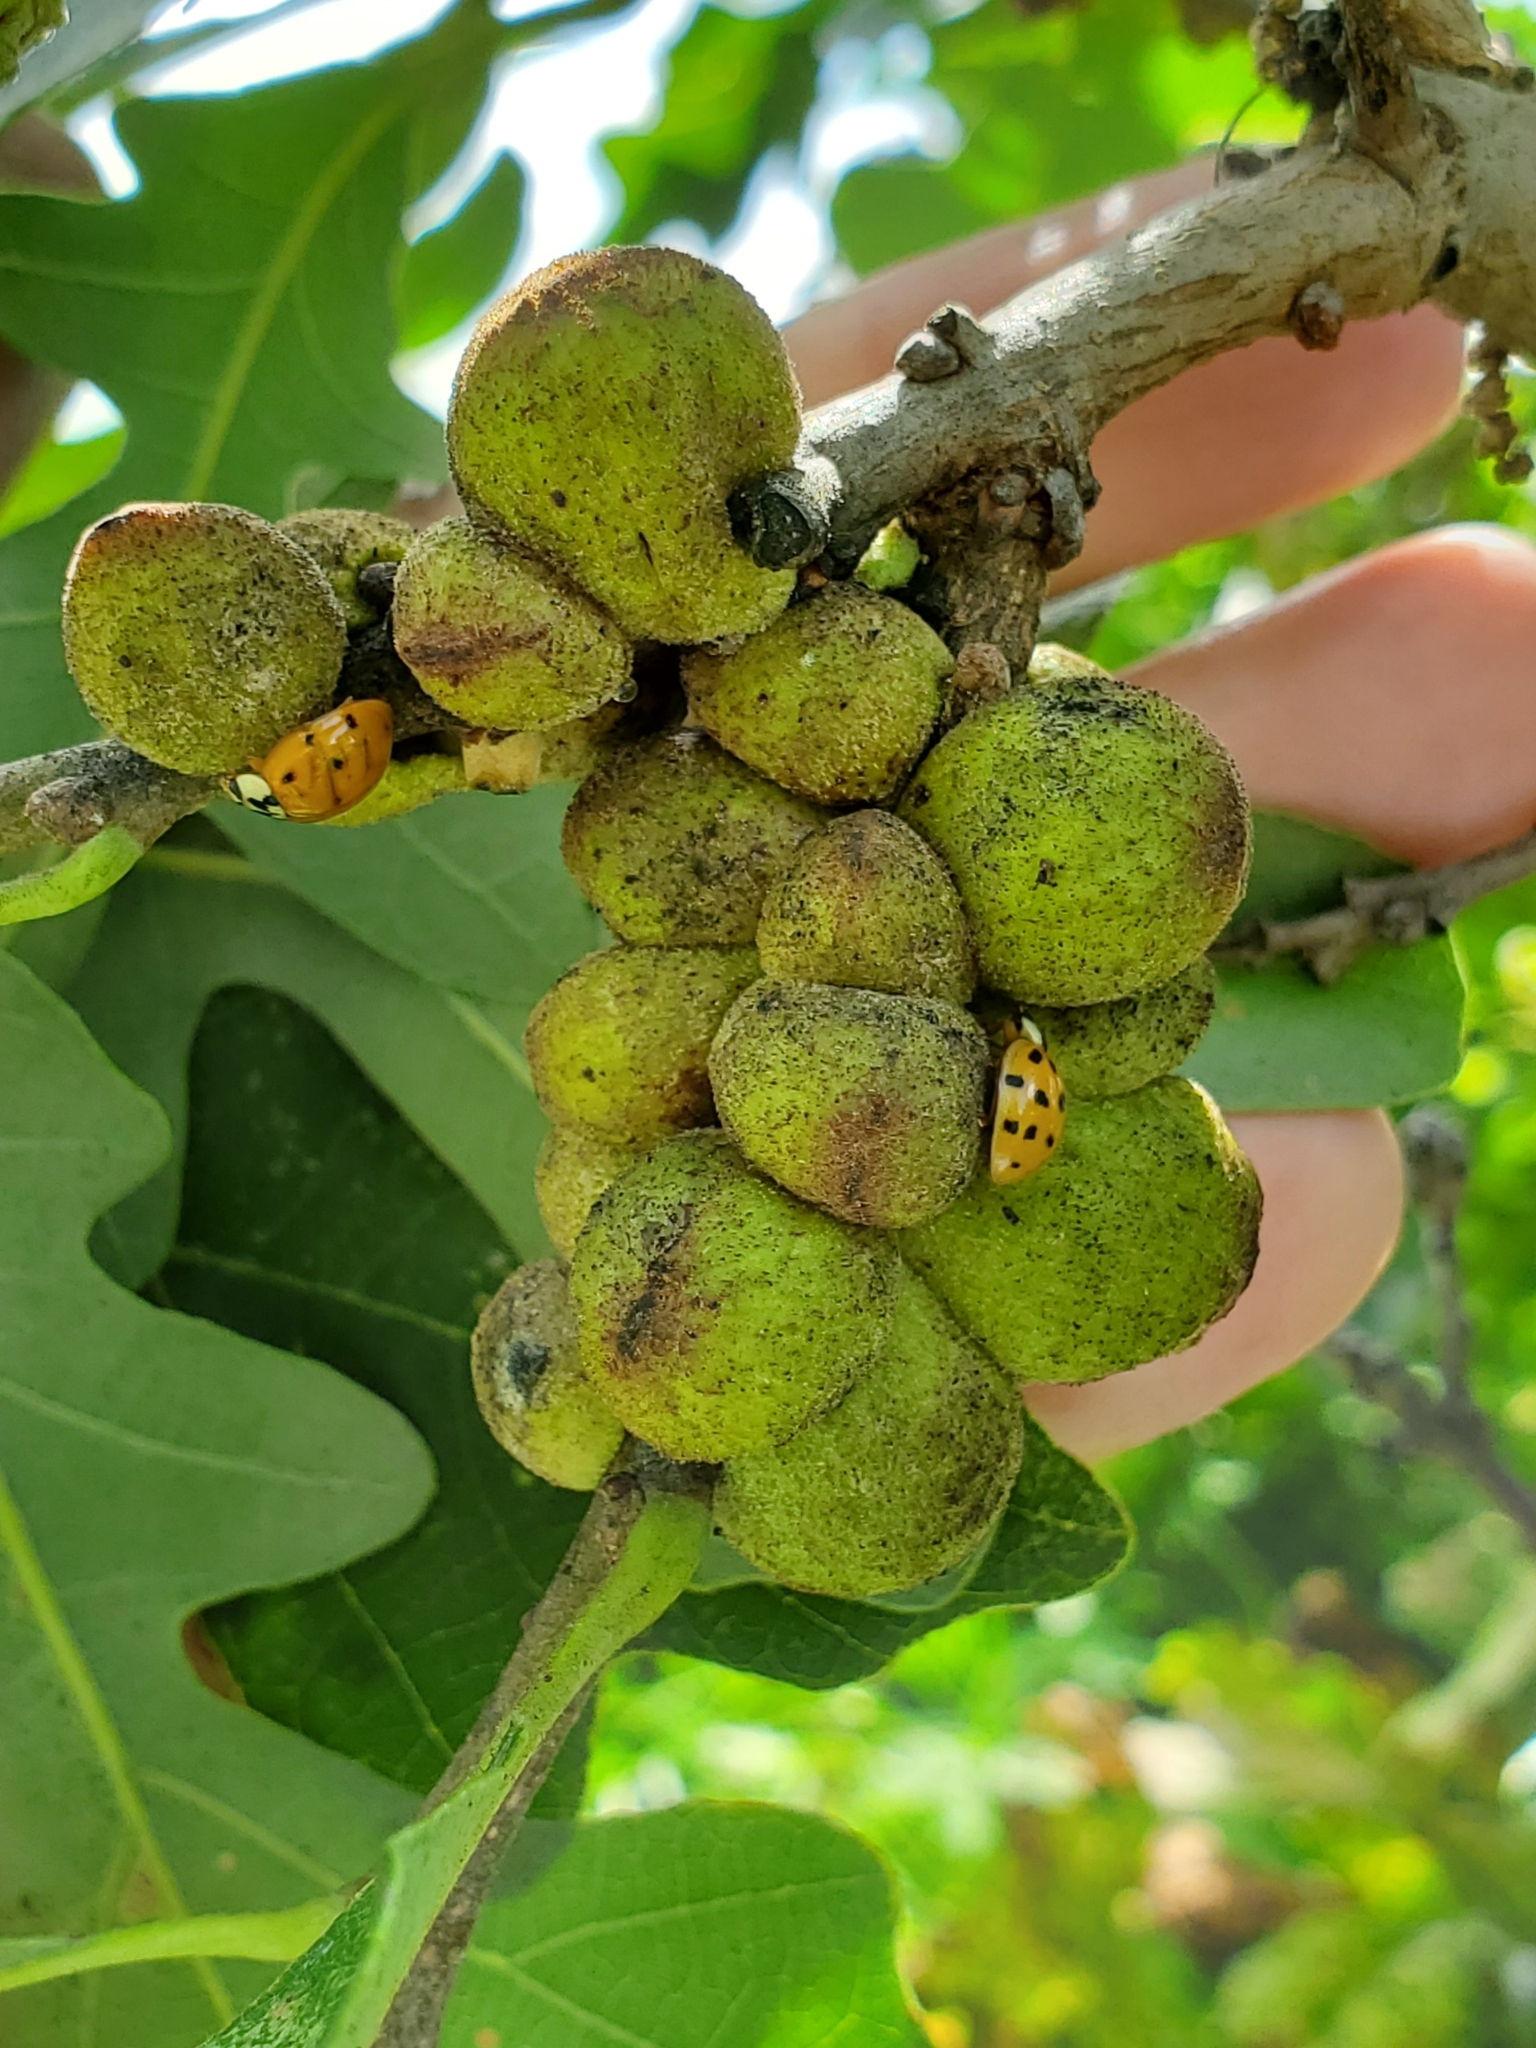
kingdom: Animalia
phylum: Arthropoda
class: Insecta
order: Coleoptera
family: Coccinellidae
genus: Harmonia
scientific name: Harmonia axyridis
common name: Harlequin ladybird
